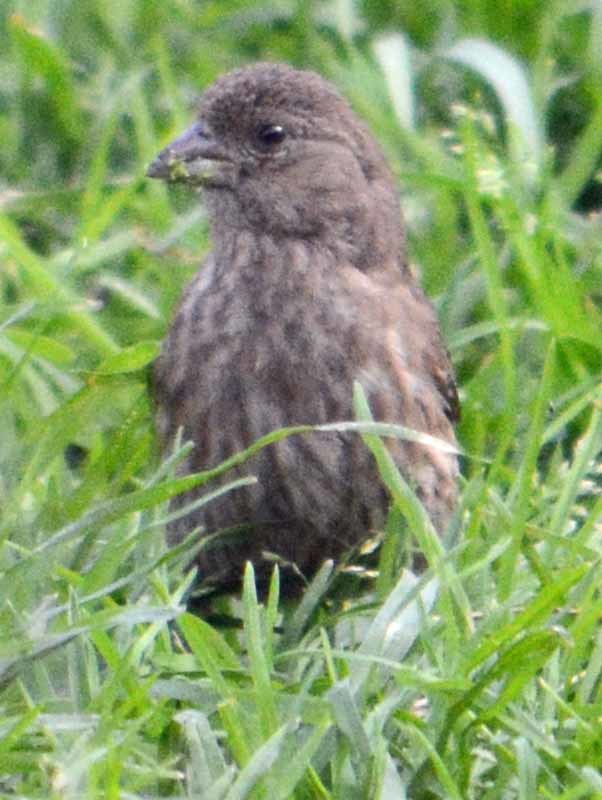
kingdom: Animalia
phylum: Chordata
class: Aves
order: Passeriformes
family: Fringillidae
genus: Haemorhous
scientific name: Haemorhous mexicanus
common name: House finch
